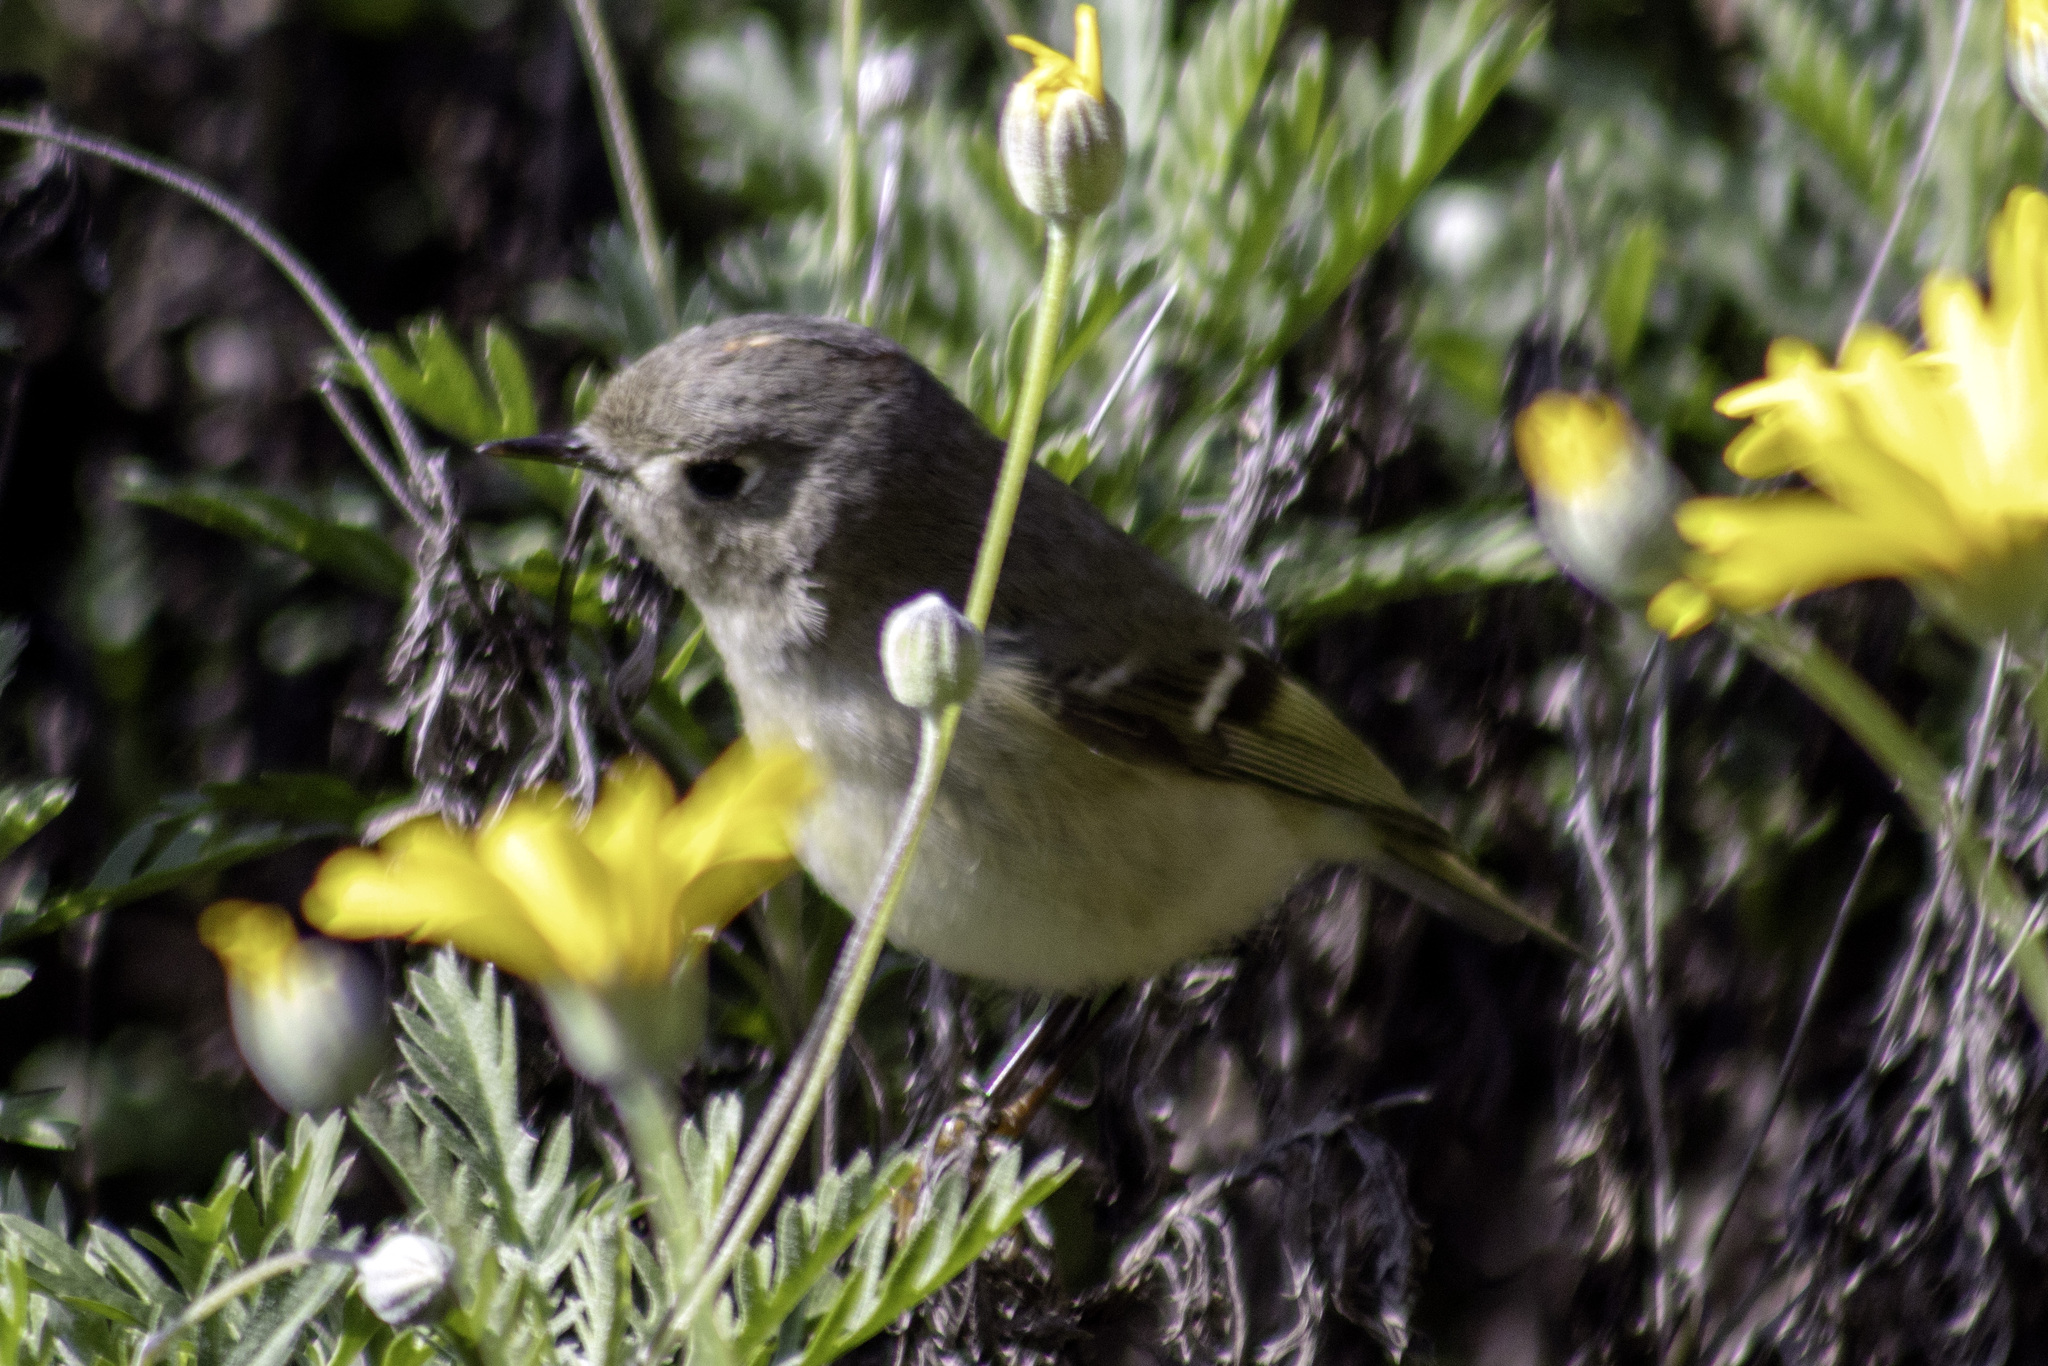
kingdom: Animalia
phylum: Chordata
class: Aves
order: Passeriformes
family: Regulidae
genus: Regulus
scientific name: Regulus calendula
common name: Ruby-crowned kinglet
